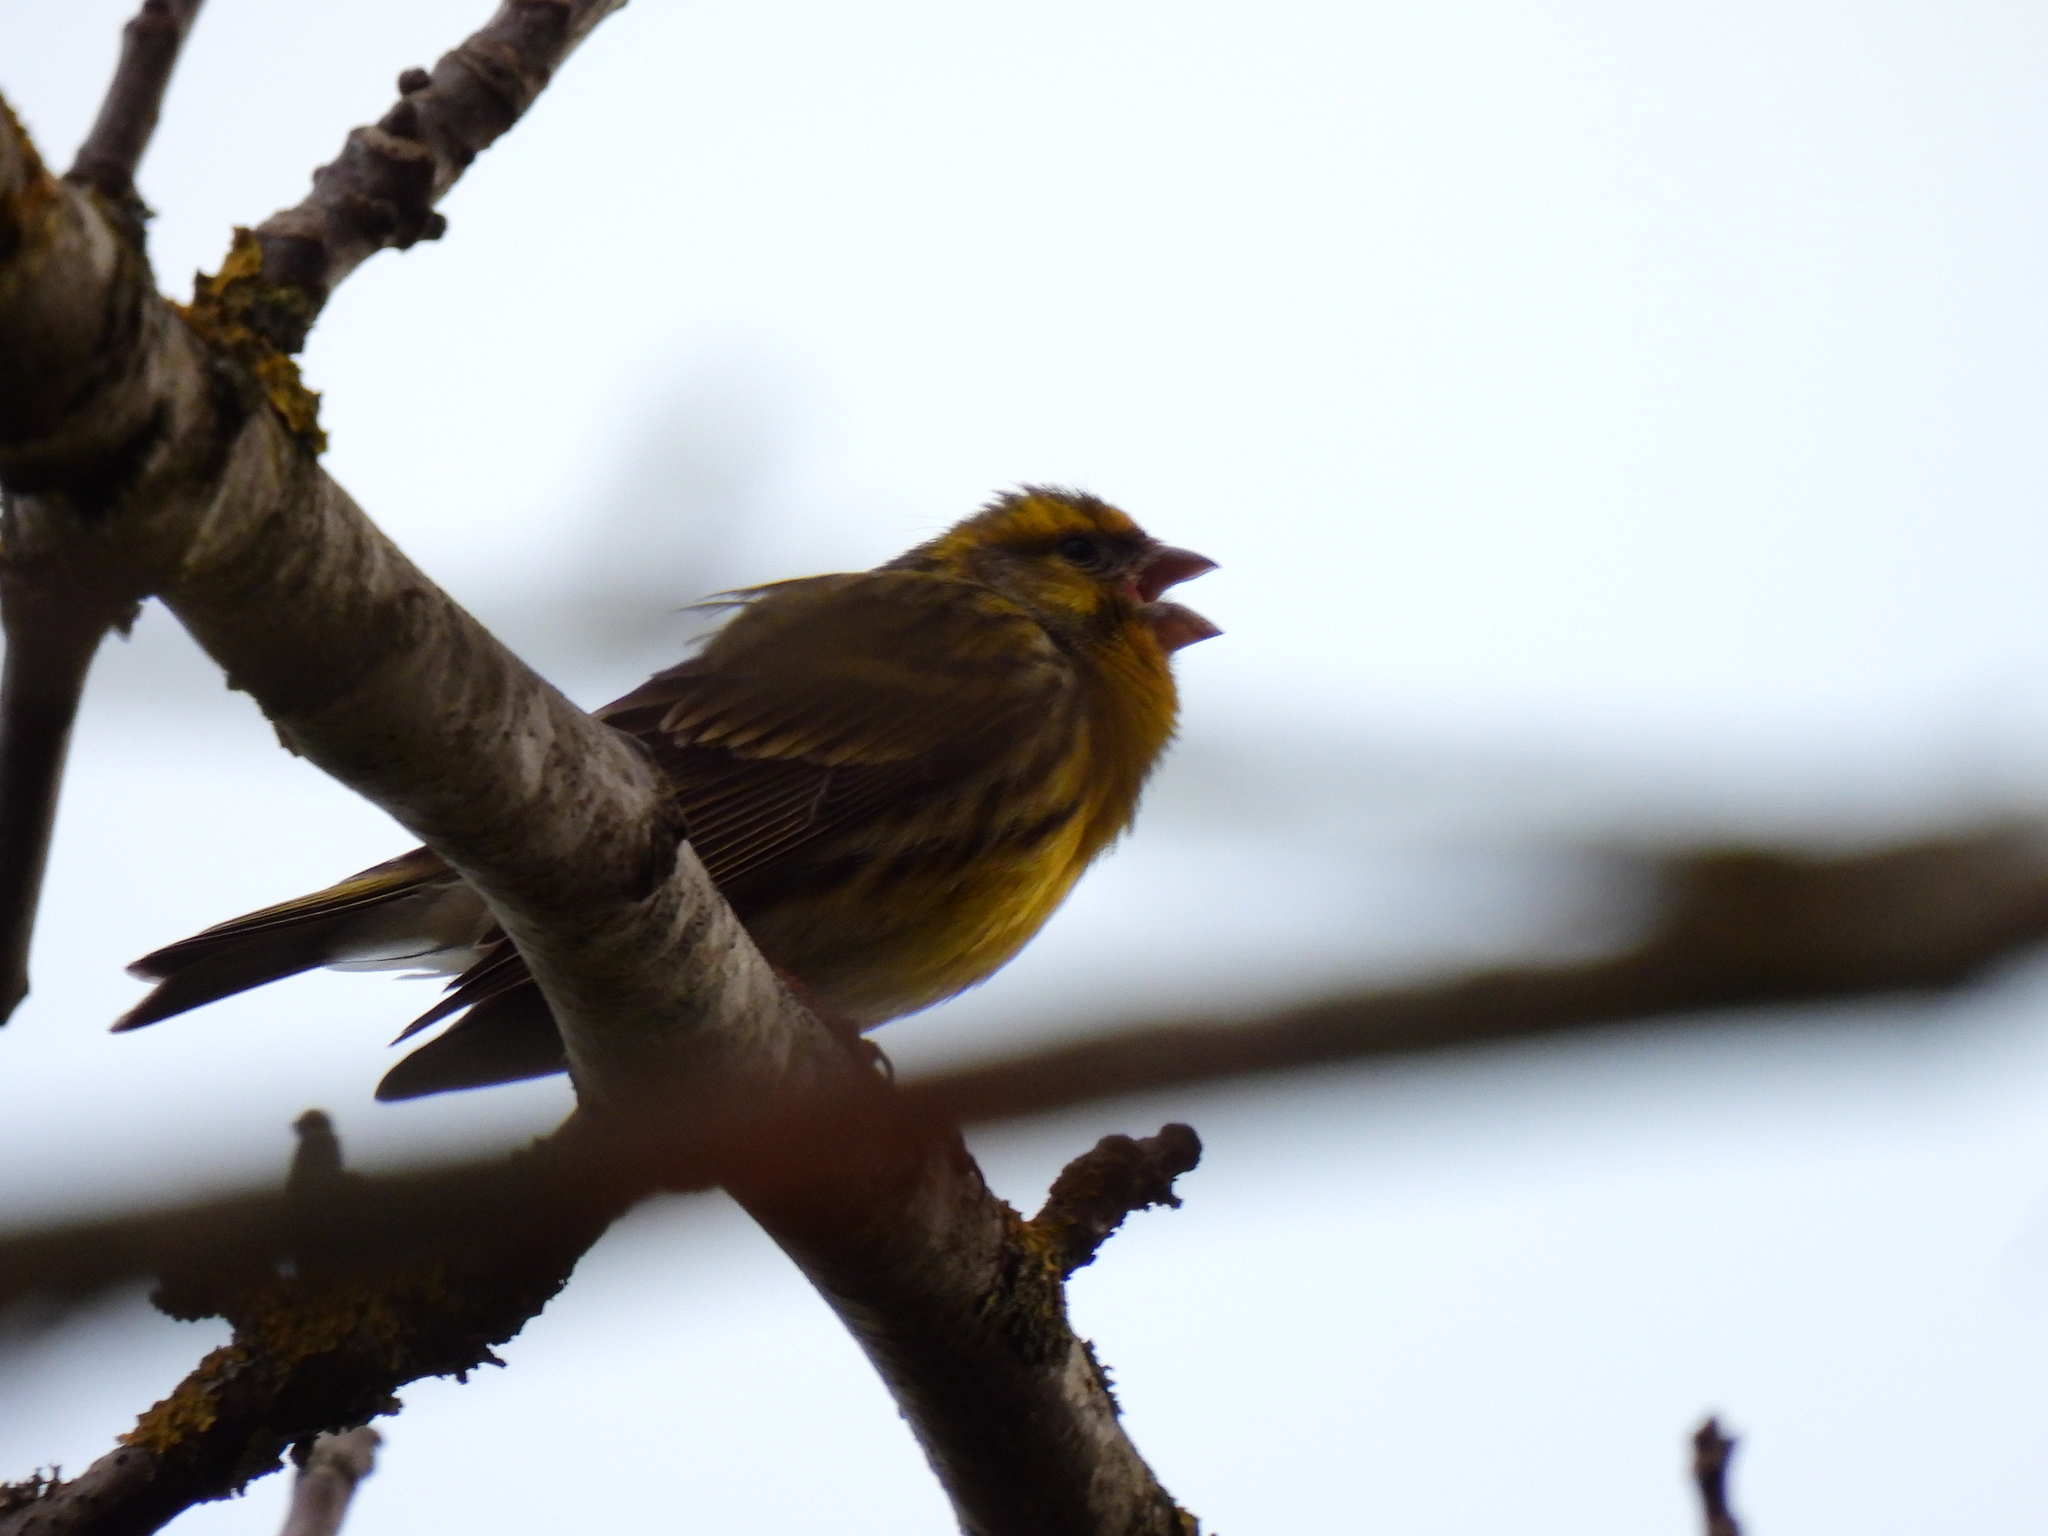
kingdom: Animalia
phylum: Chordata
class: Aves
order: Passeriformes
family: Fringillidae
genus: Serinus
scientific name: Serinus serinus
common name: European serin
